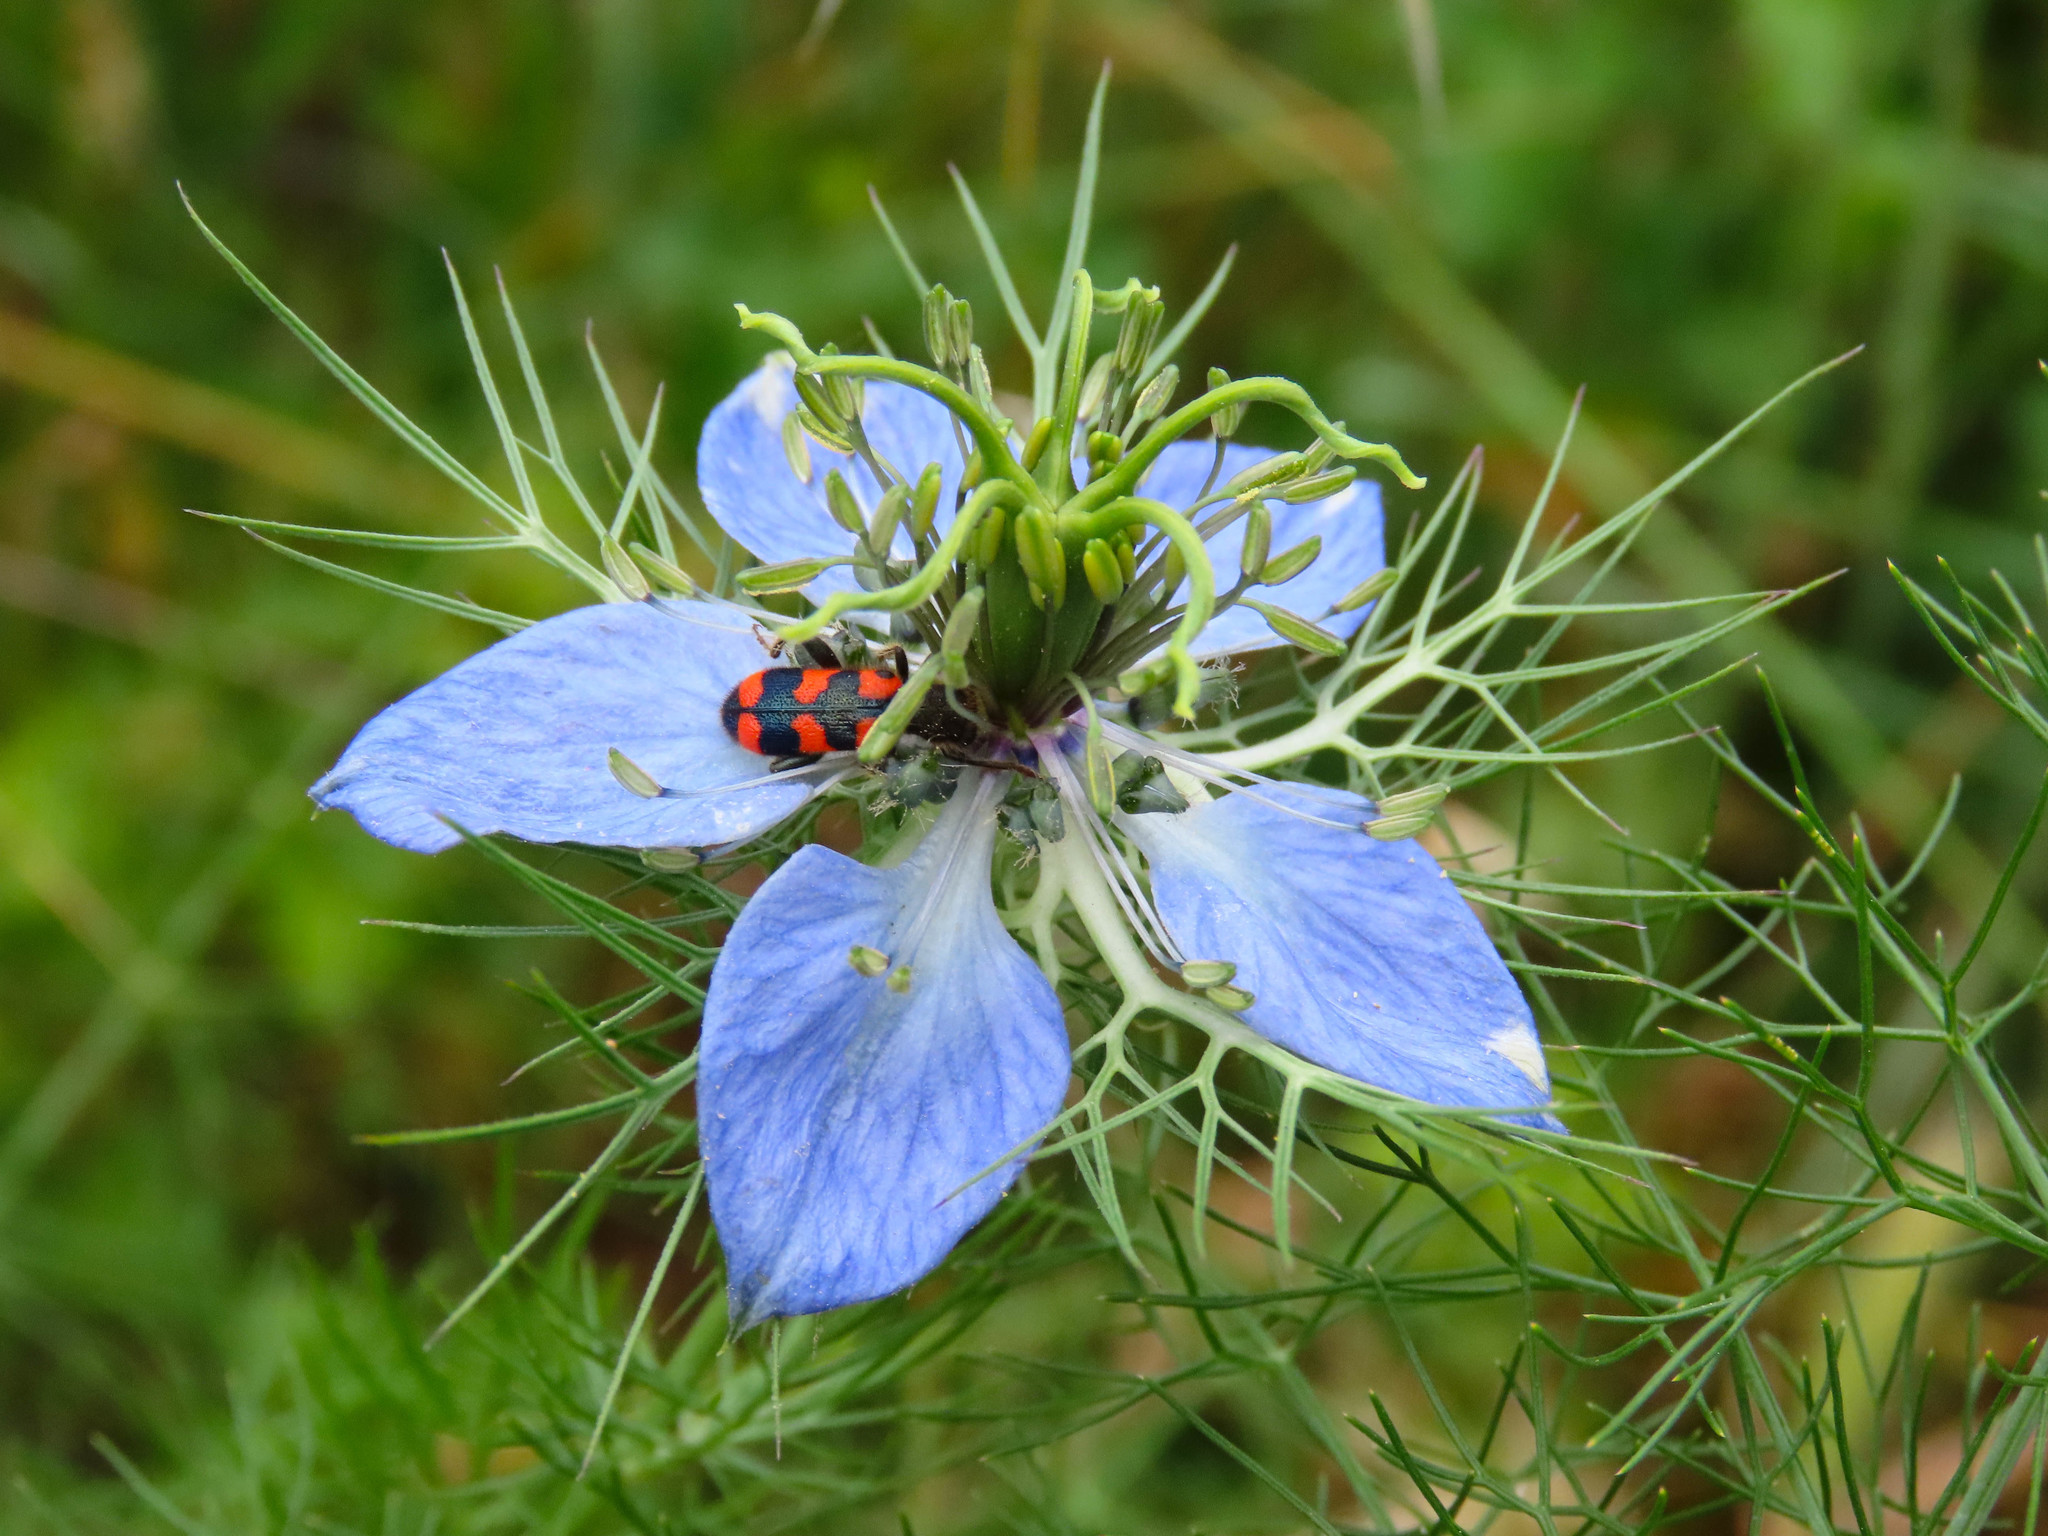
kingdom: Plantae
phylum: Tracheophyta
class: Magnoliopsida
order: Ranunculales
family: Ranunculaceae
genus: Nigella
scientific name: Nigella damascena
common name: Love-in-a-mist
